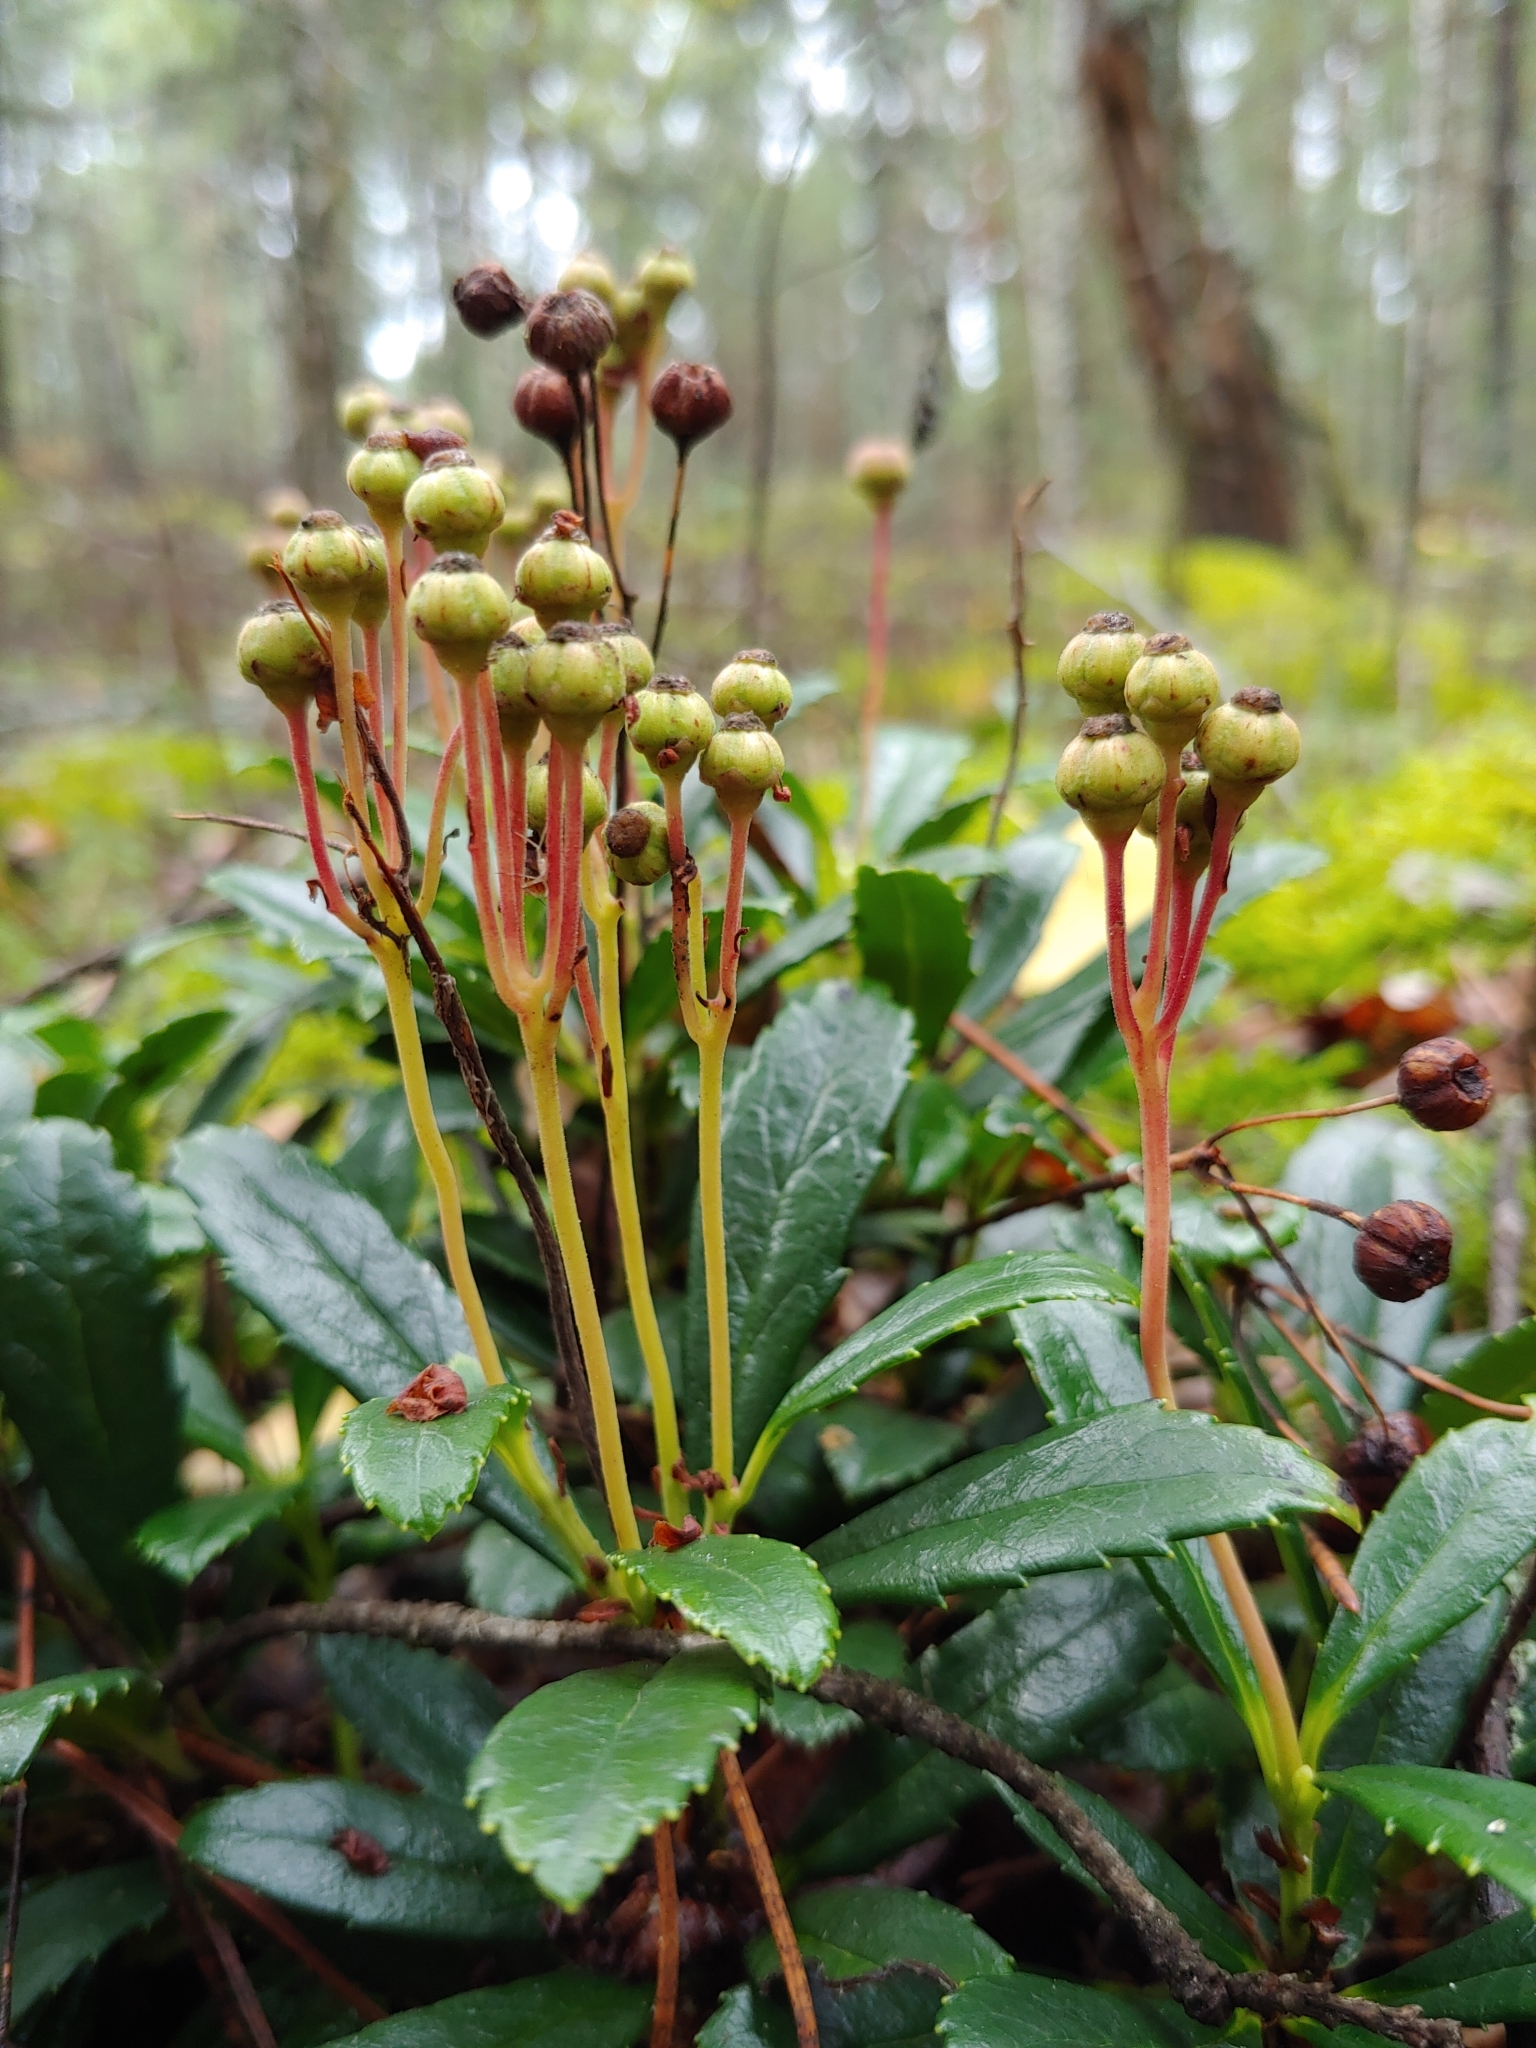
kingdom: Plantae
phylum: Tracheophyta
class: Magnoliopsida
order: Ericales
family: Ericaceae
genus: Chimaphila
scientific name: Chimaphila umbellata
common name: Pipsissewa
